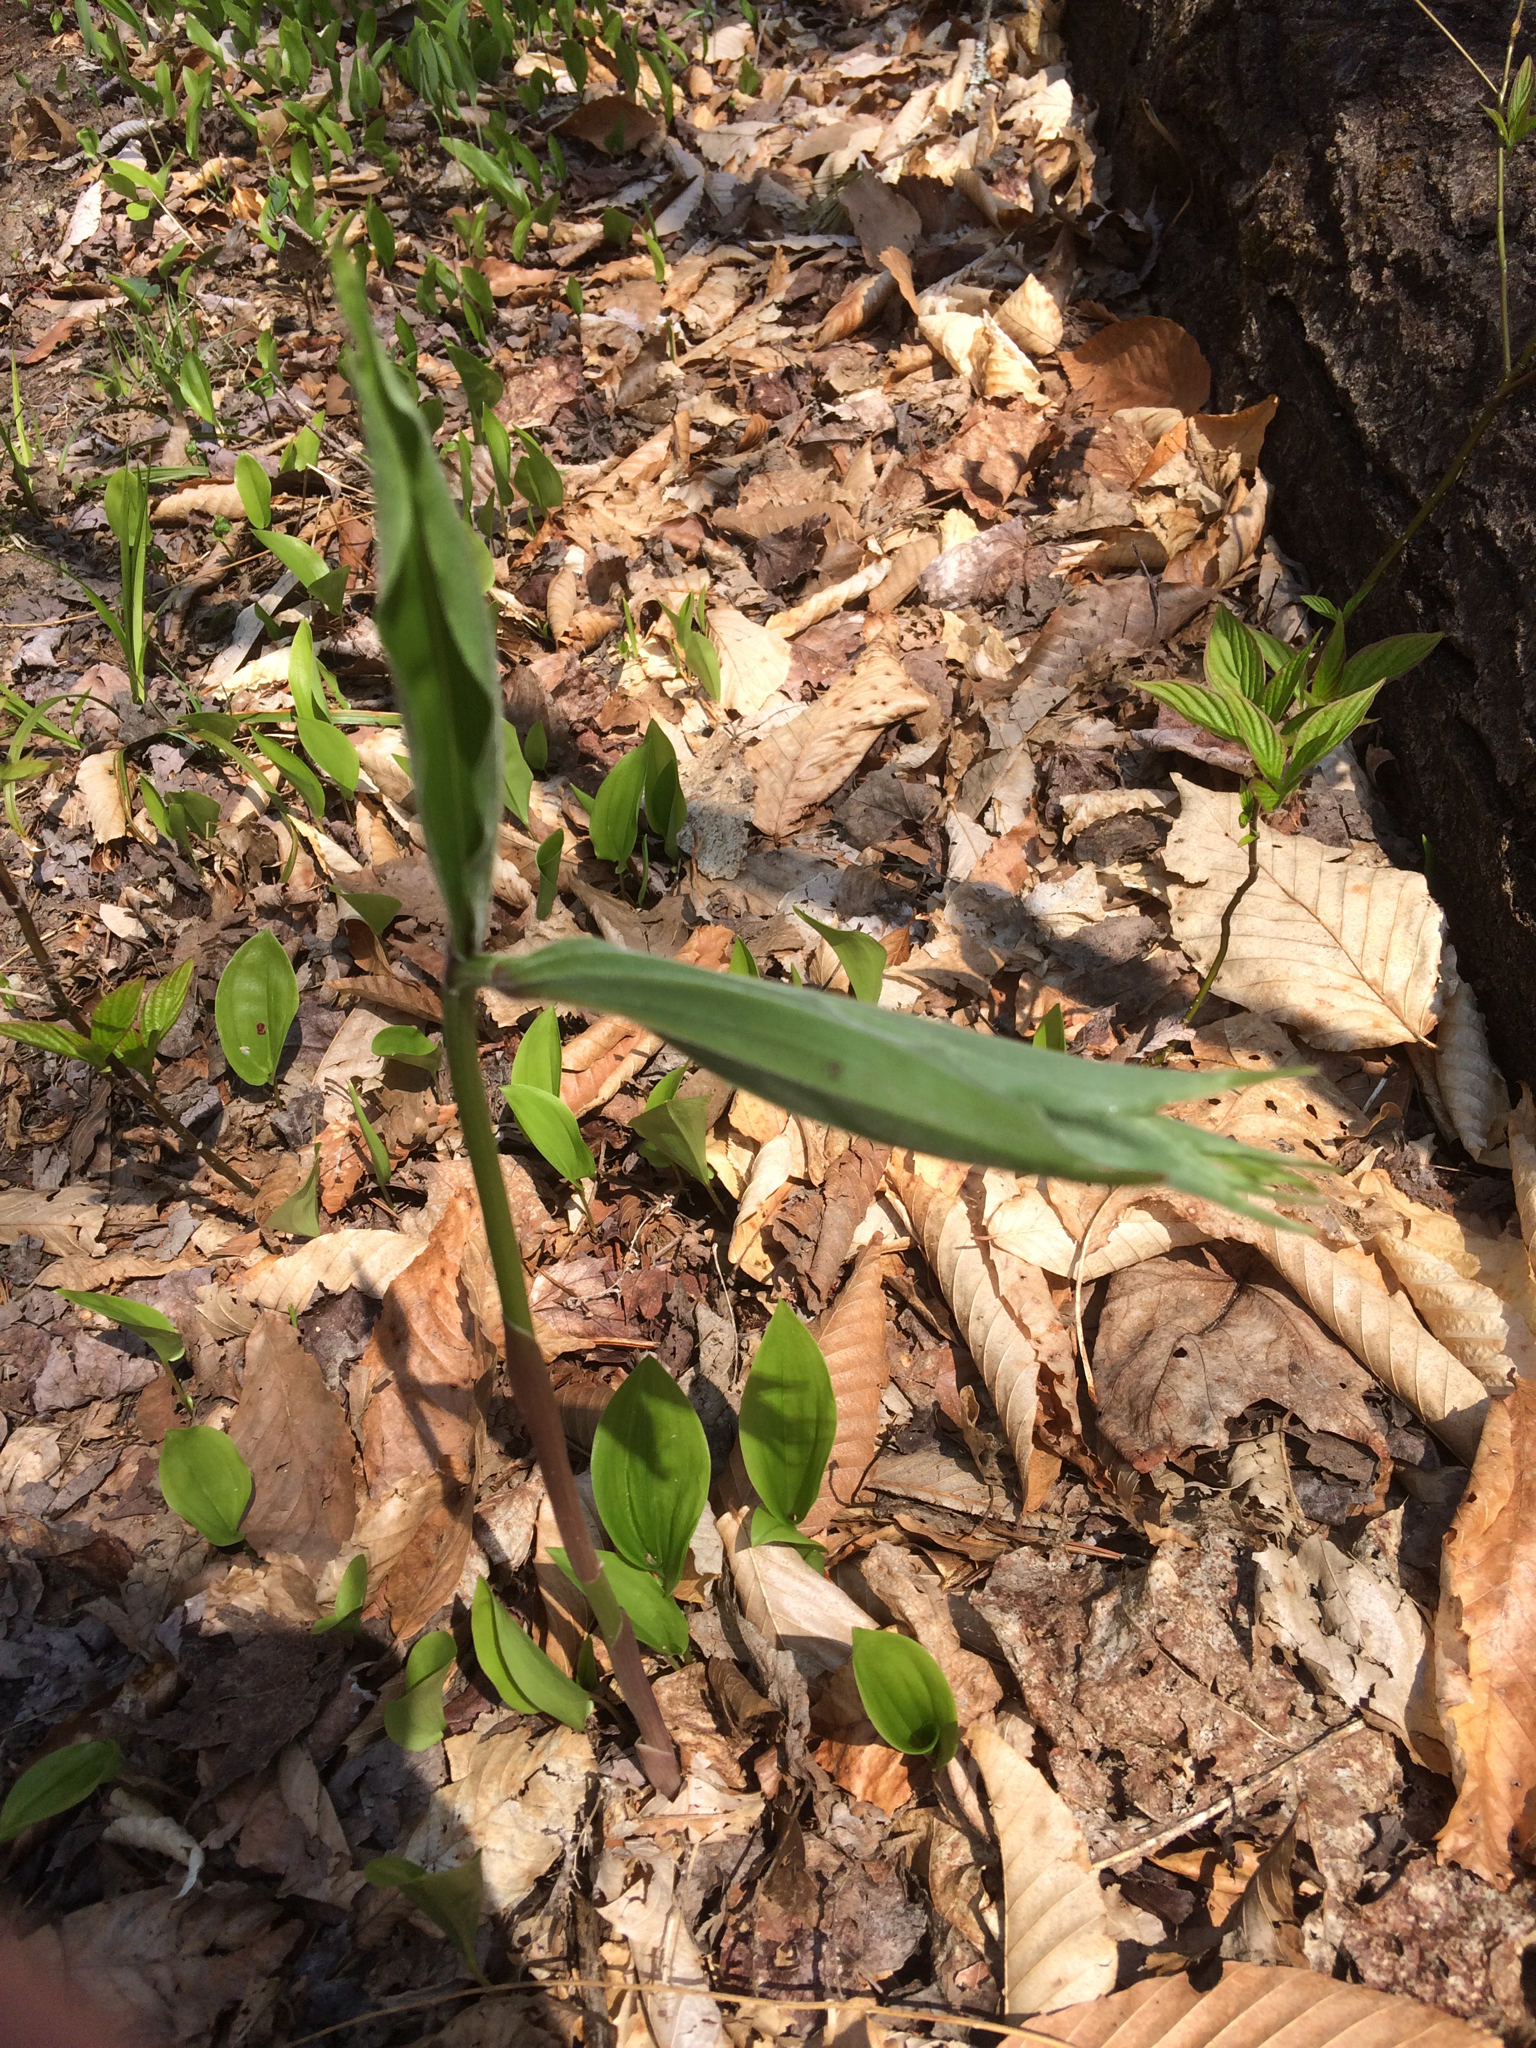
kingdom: Plantae
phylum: Tracheophyta
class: Liliopsida
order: Asparagales
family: Asparagaceae
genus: Maianthemum
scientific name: Maianthemum racemosum
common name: False spikenard
